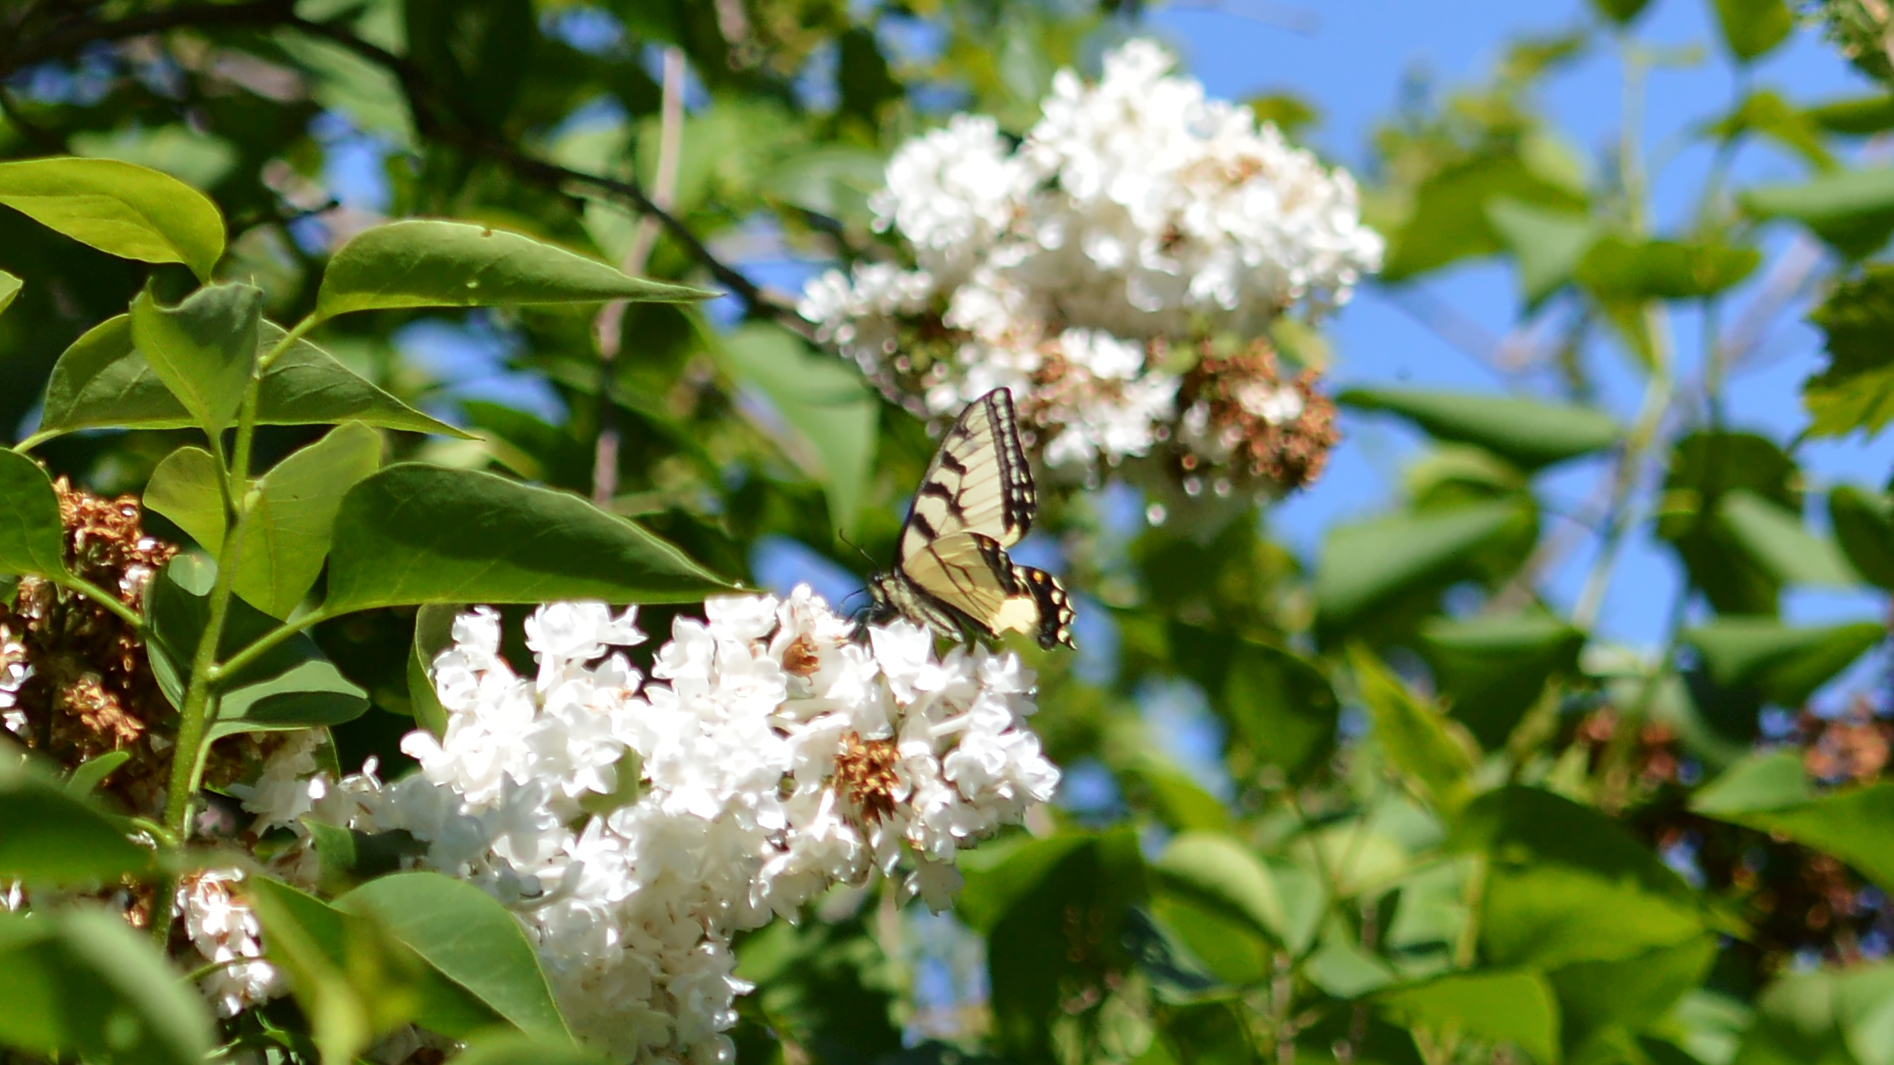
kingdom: Animalia
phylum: Arthropoda
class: Insecta
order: Lepidoptera
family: Papilionidae
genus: Papilio
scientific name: Papilio glaucus
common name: Tiger swallowtail
